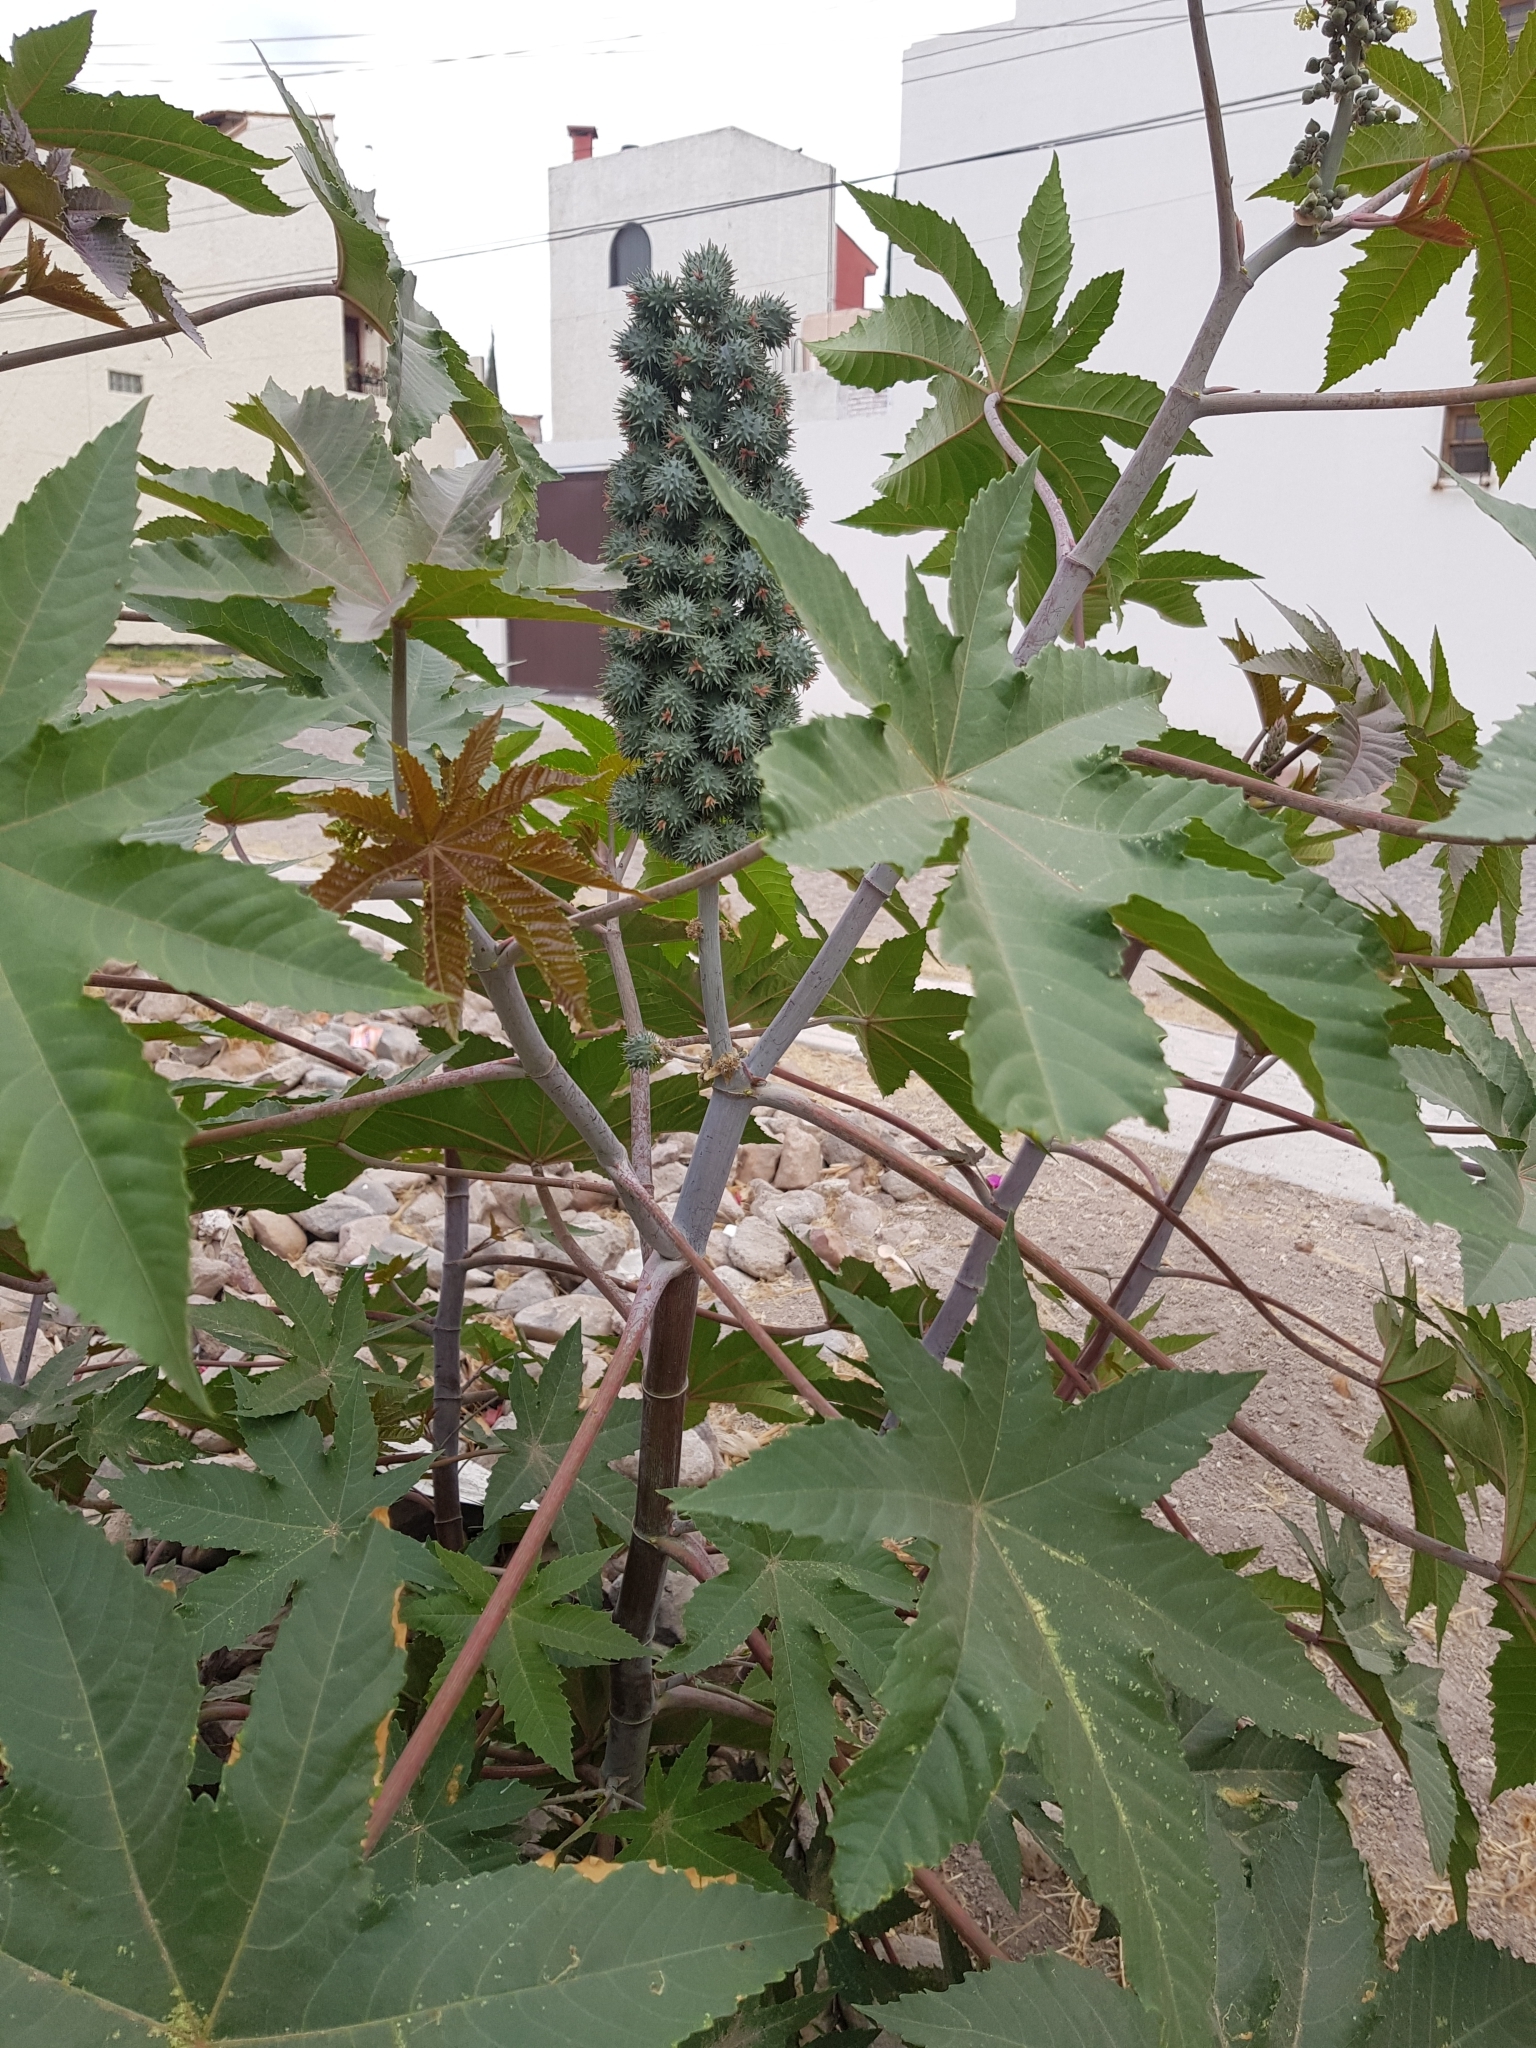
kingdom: Plantae
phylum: Tracheophyta
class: Magnoliopsida
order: Malpighiales
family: Euphorbiaceae
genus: Ricinus
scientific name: Ricinus communis
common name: Castor-oil-plant
